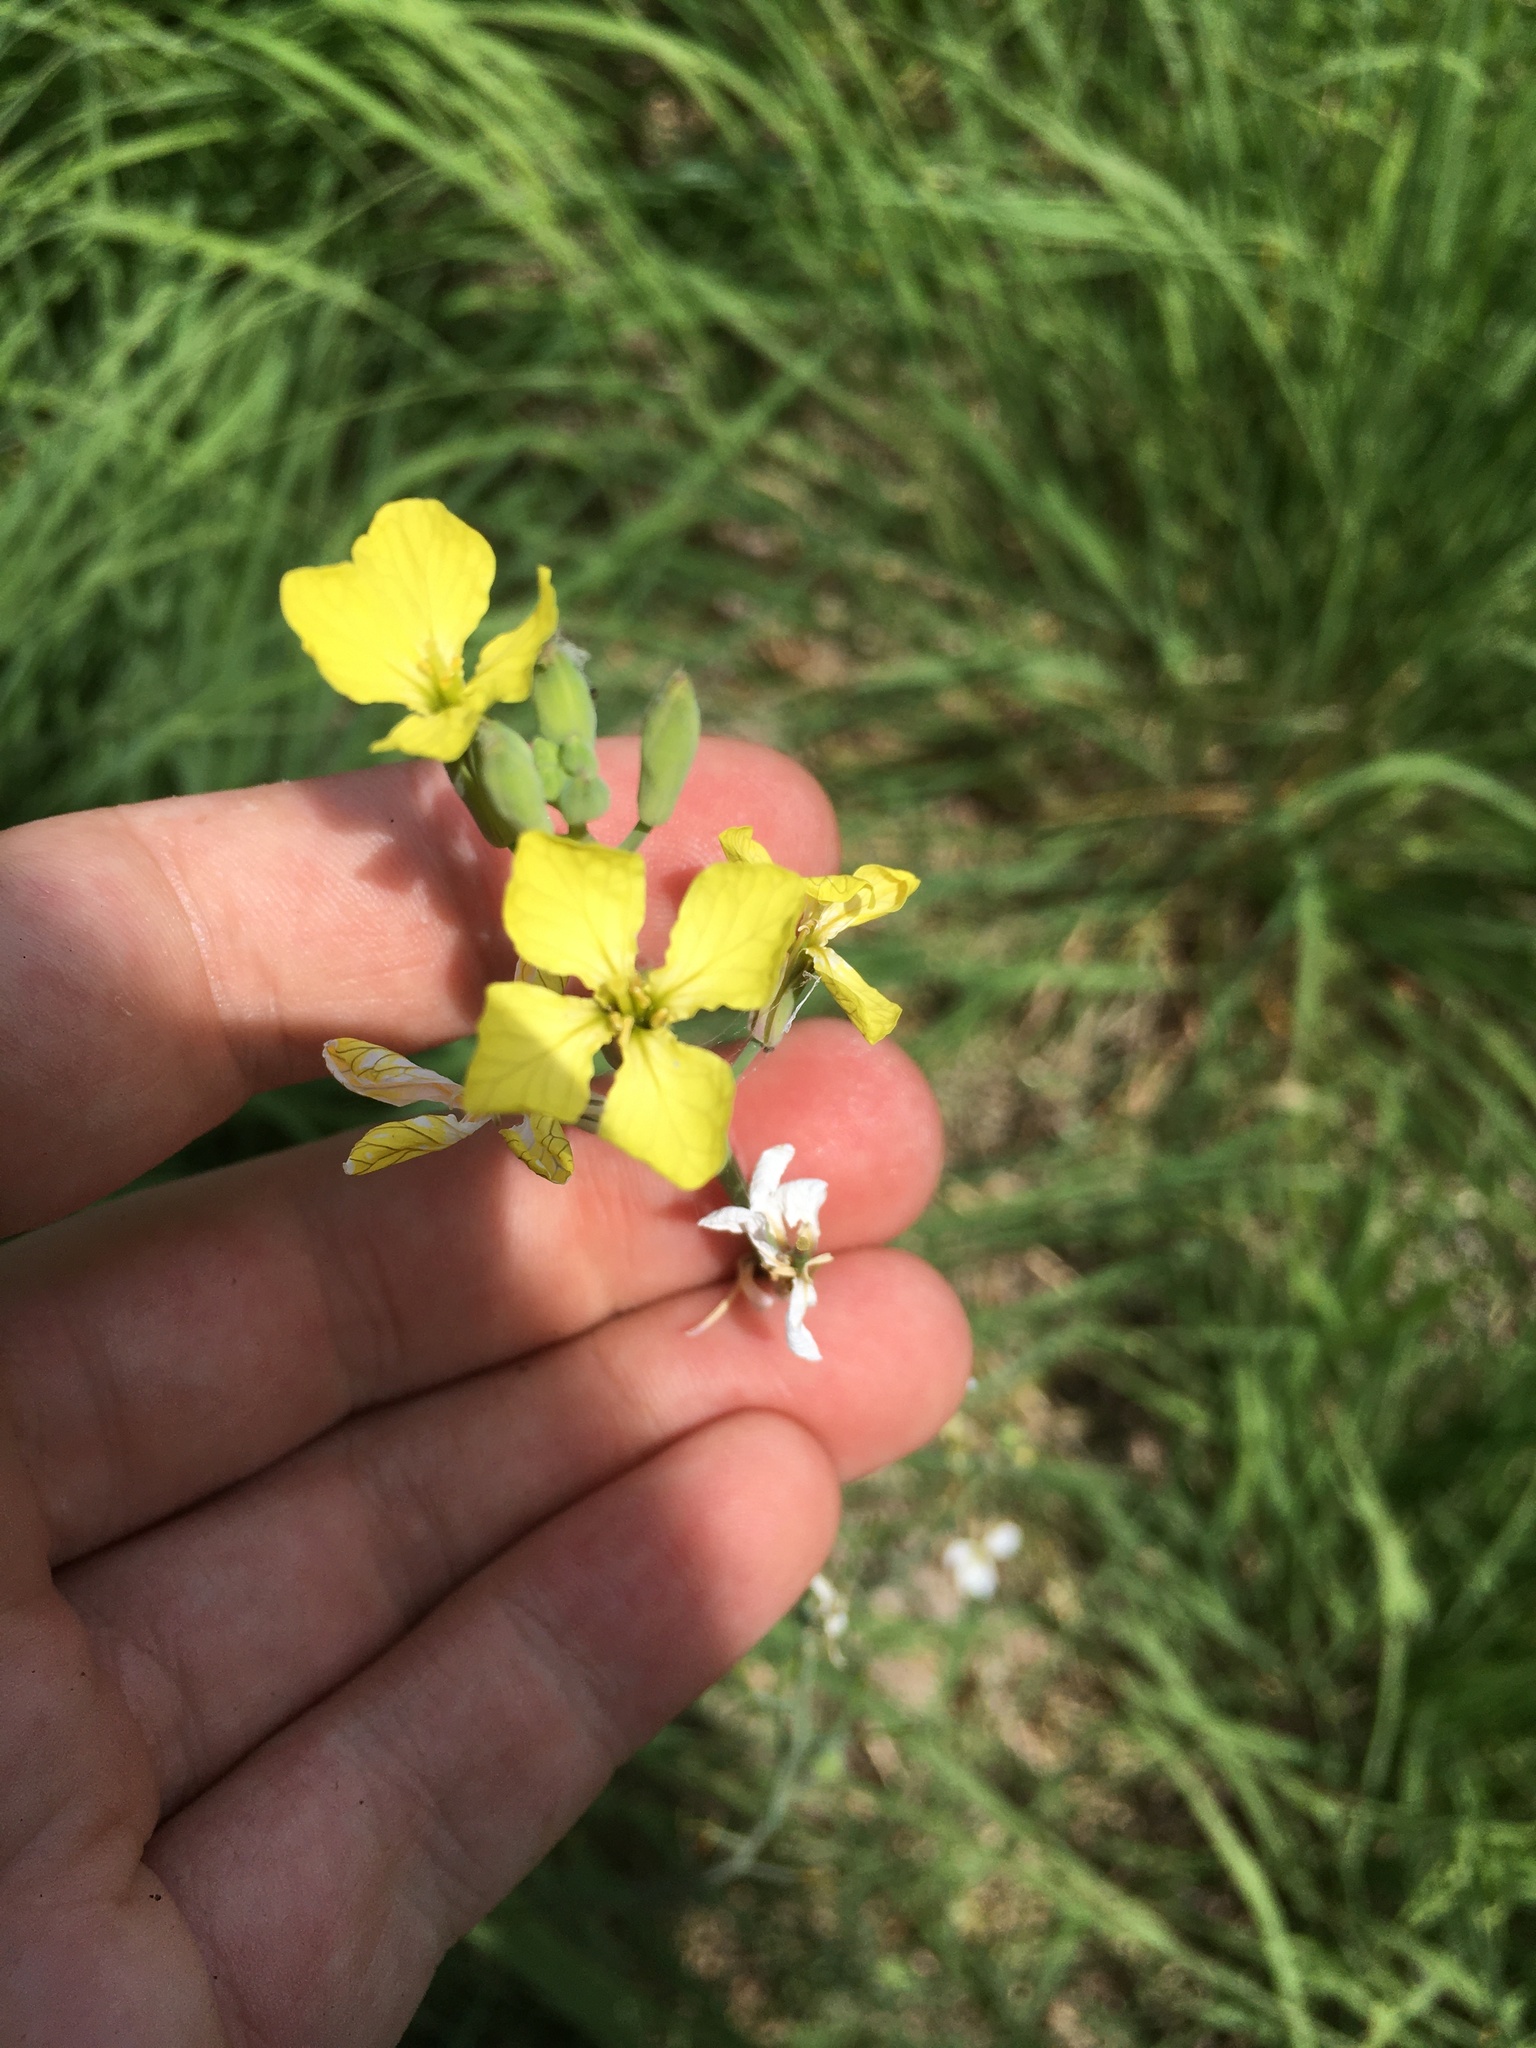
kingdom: Plantae
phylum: Tracheophyta
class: Magnoliopsida
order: Brassicales
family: Brassicaceae
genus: Raphanus
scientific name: Raphanus raphanistrum
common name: Wild radish
